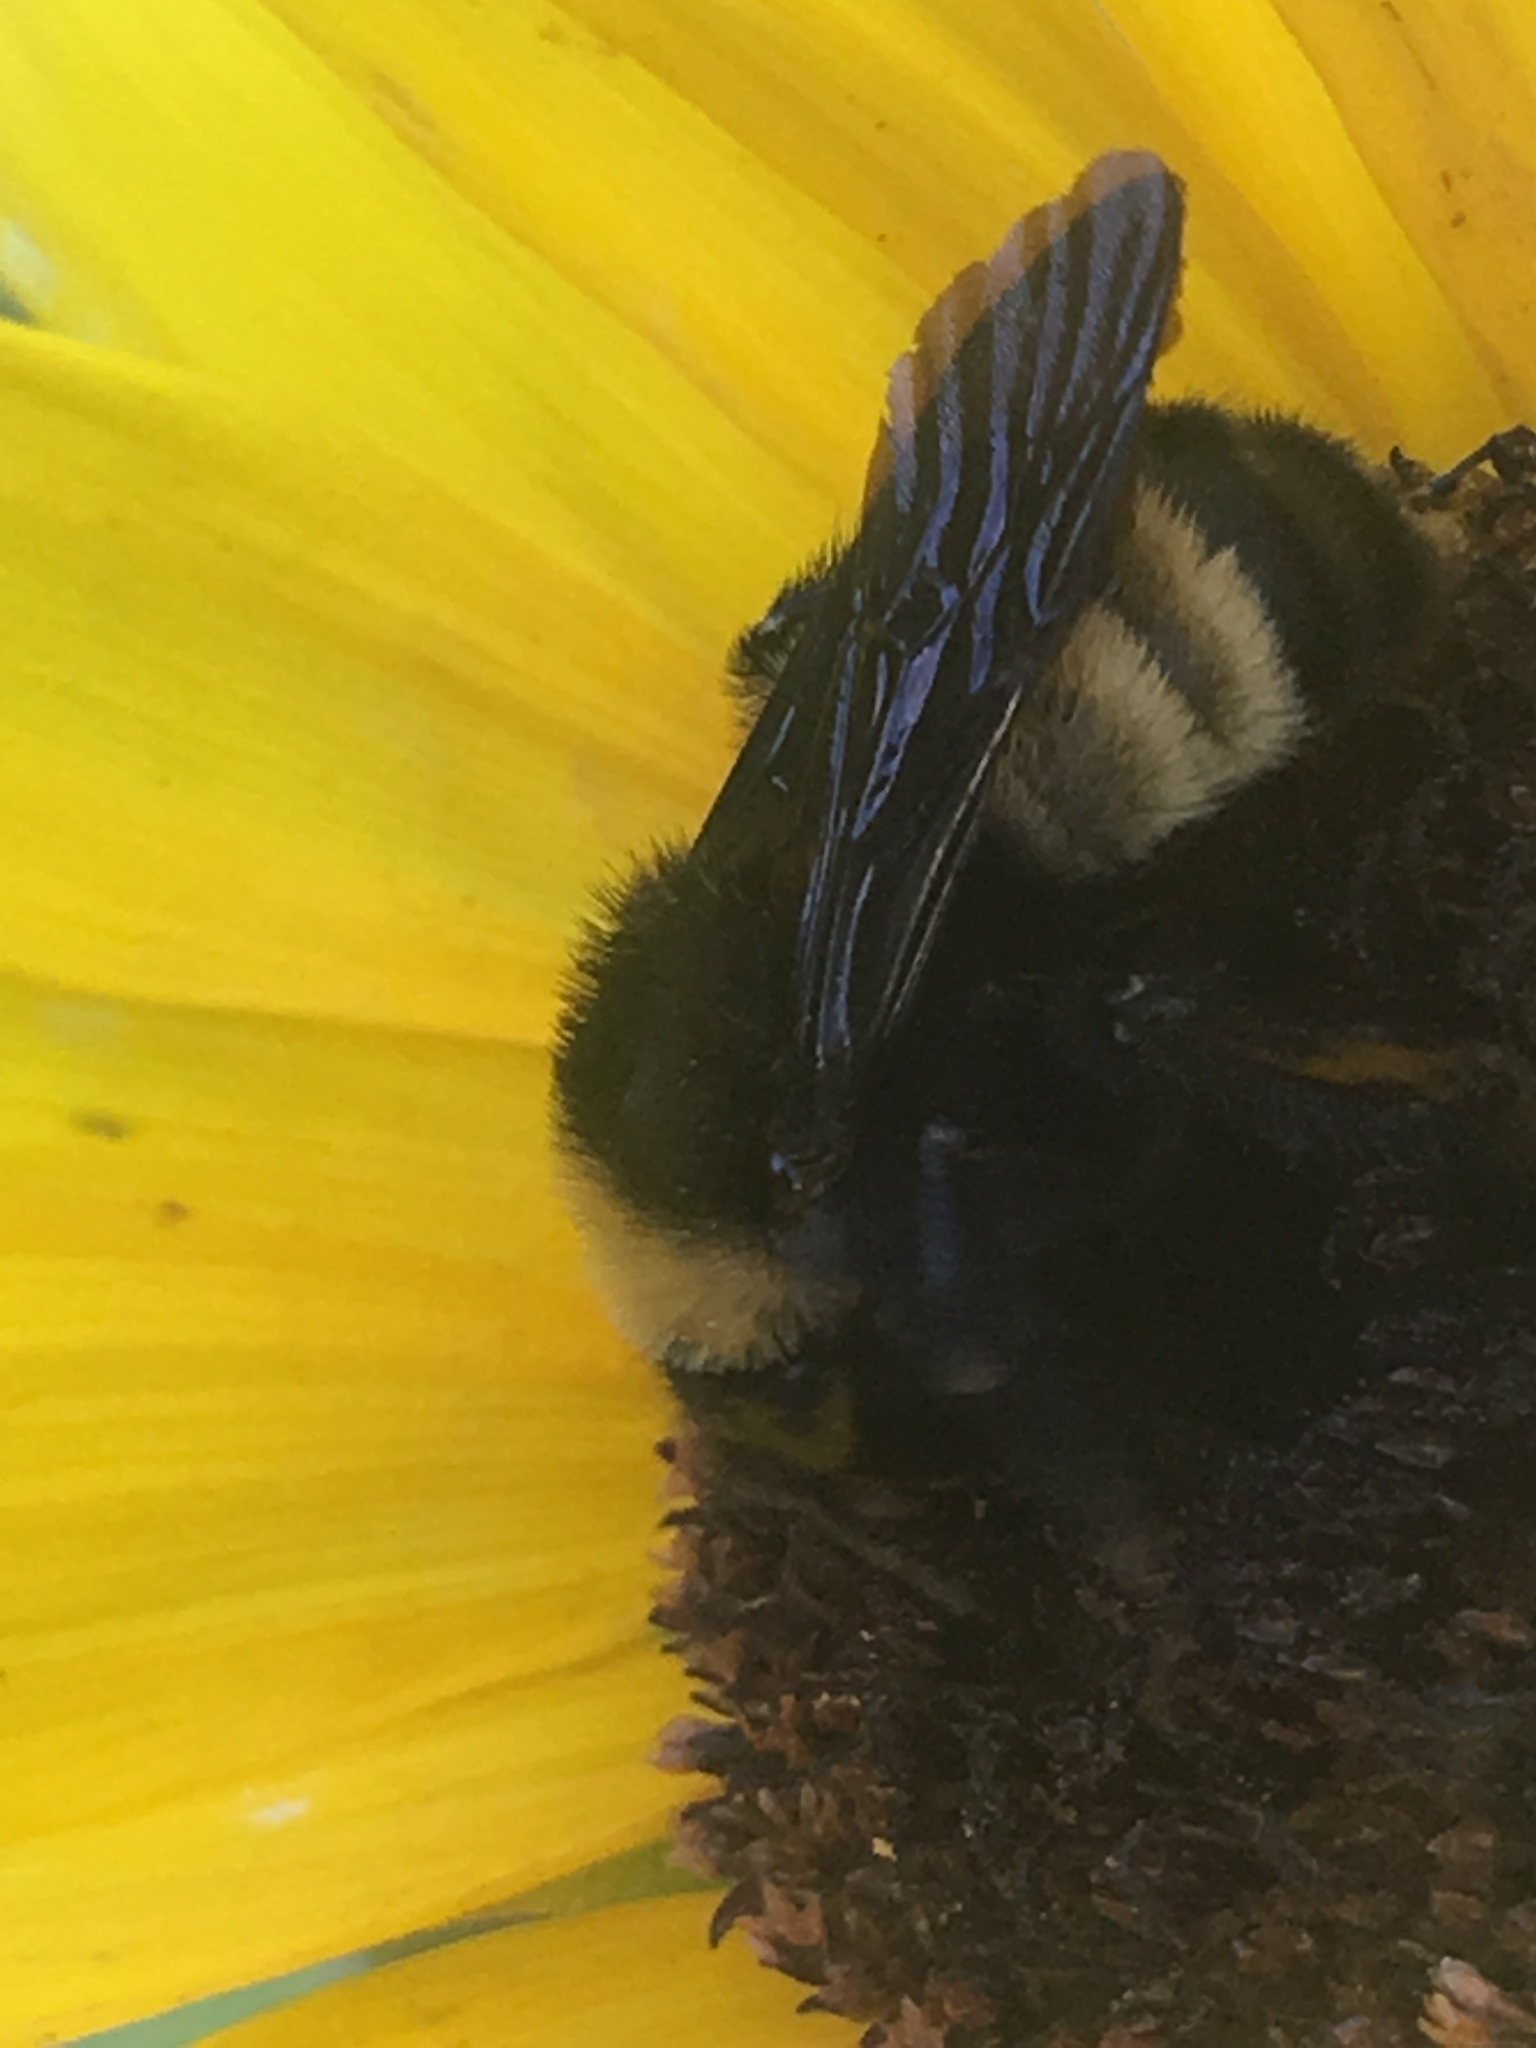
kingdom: Animalia
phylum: Arthropoda
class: Insecta
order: Hymenoptera
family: Apidae
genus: Bombus
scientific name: Bombus pensylvanicus
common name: Bumble bee
